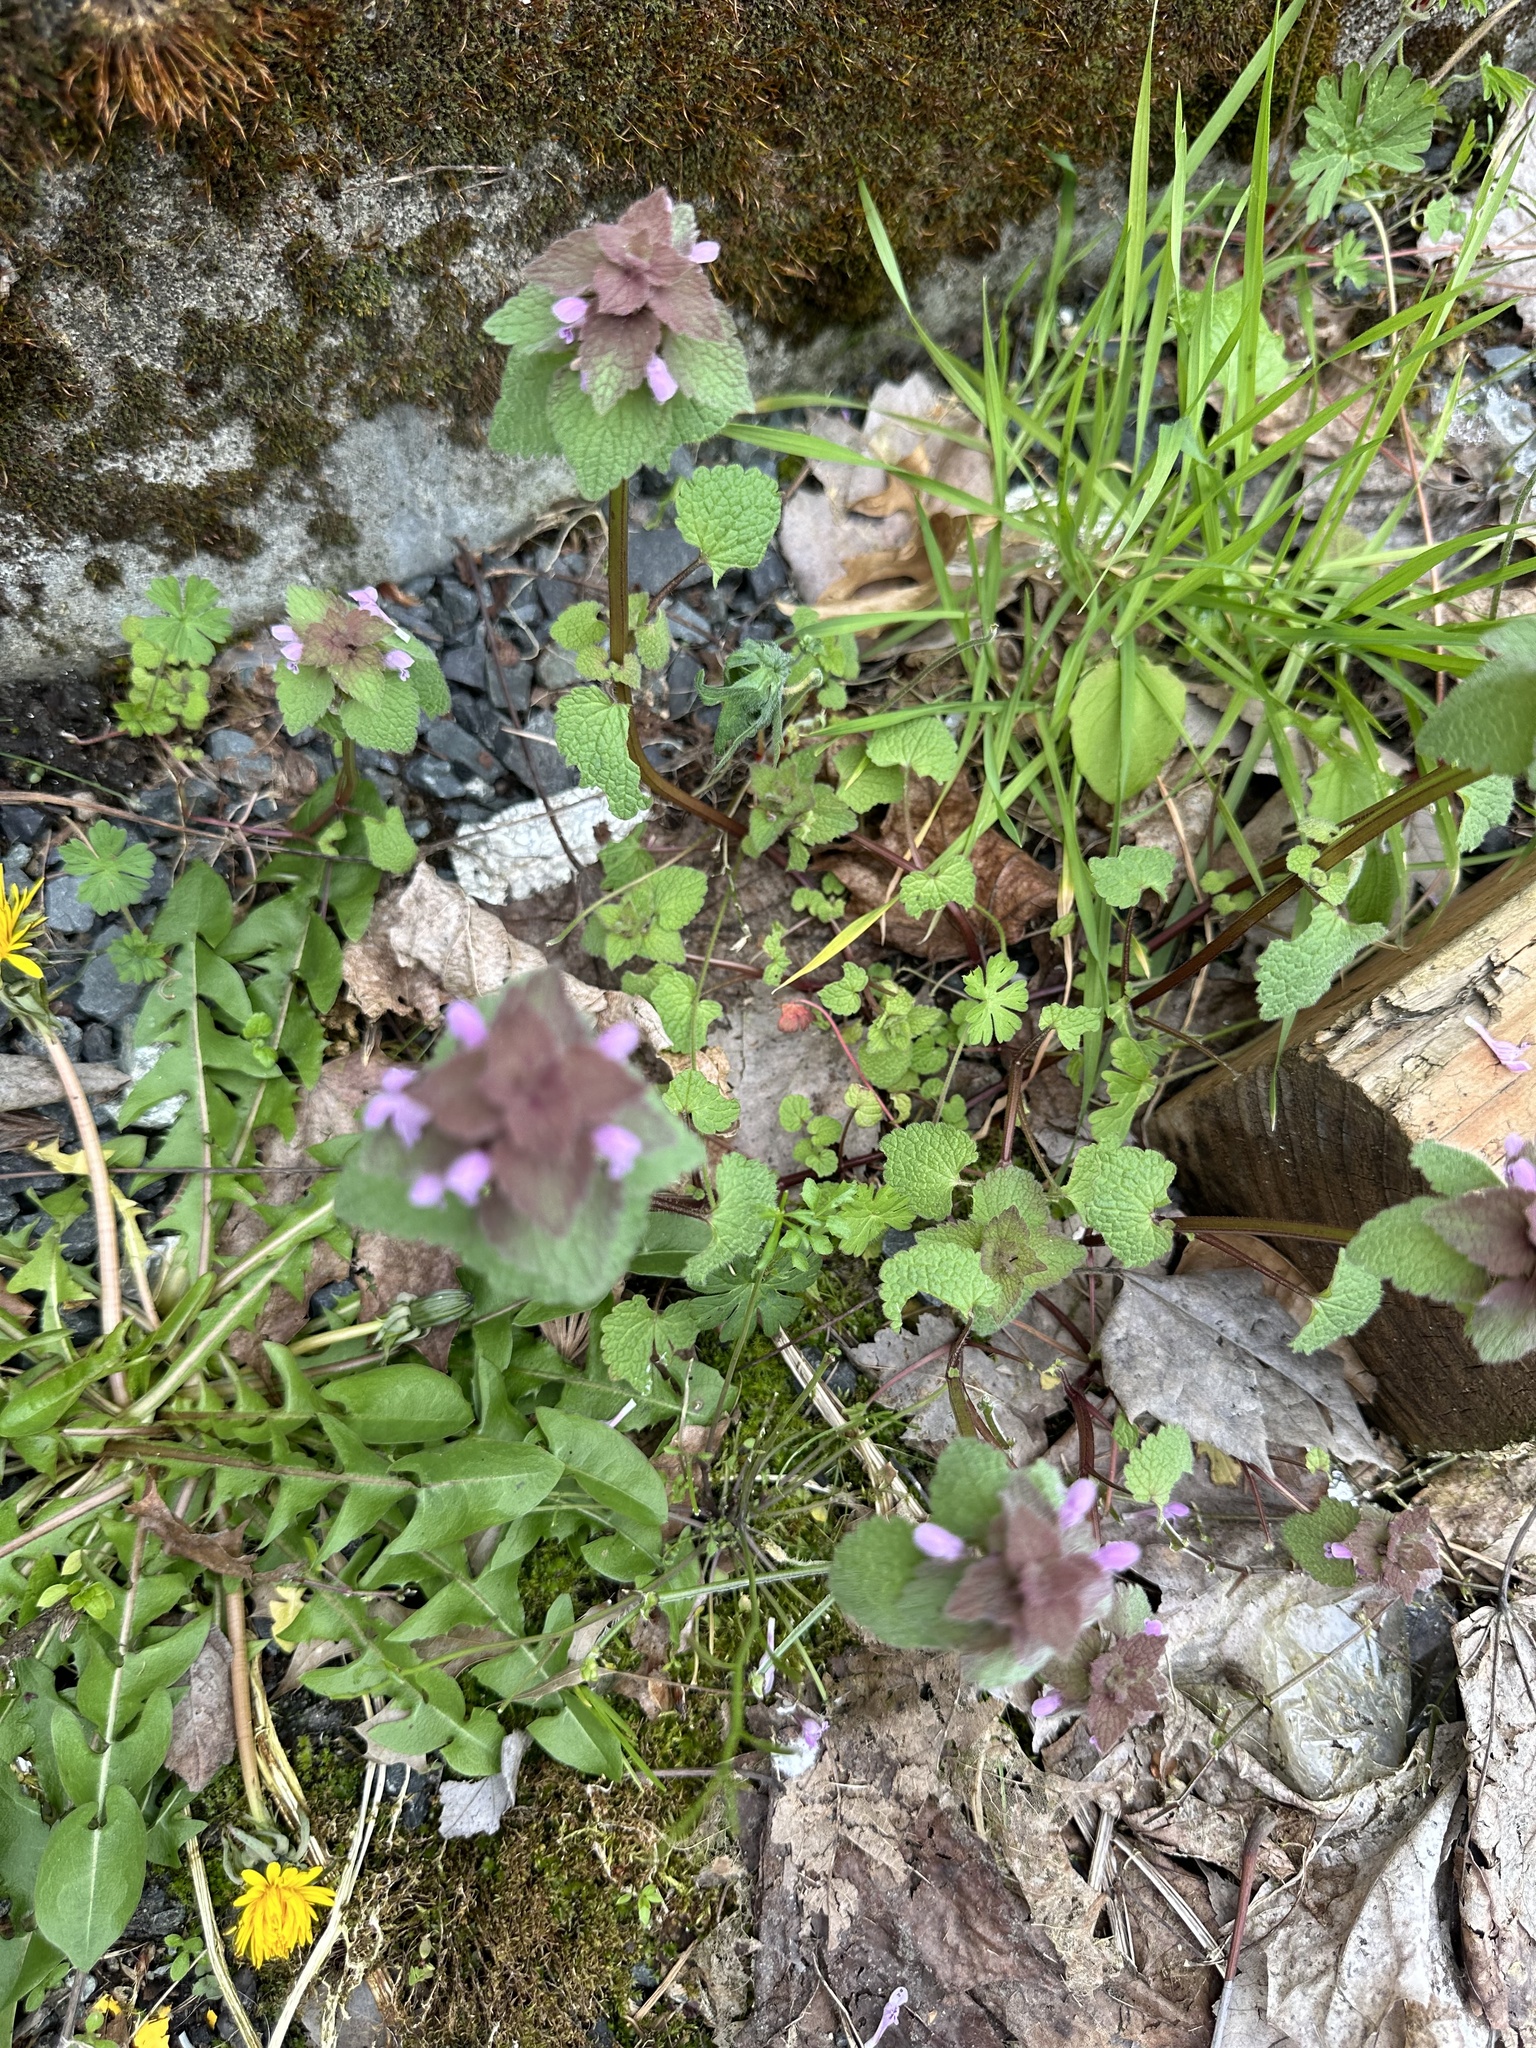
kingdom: Plantae
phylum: Tracheophyta
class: Magnoliopsida
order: Lamiales
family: Lamiaceae
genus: Lamium
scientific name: Lamium purpureum
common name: Red dead-nettle
